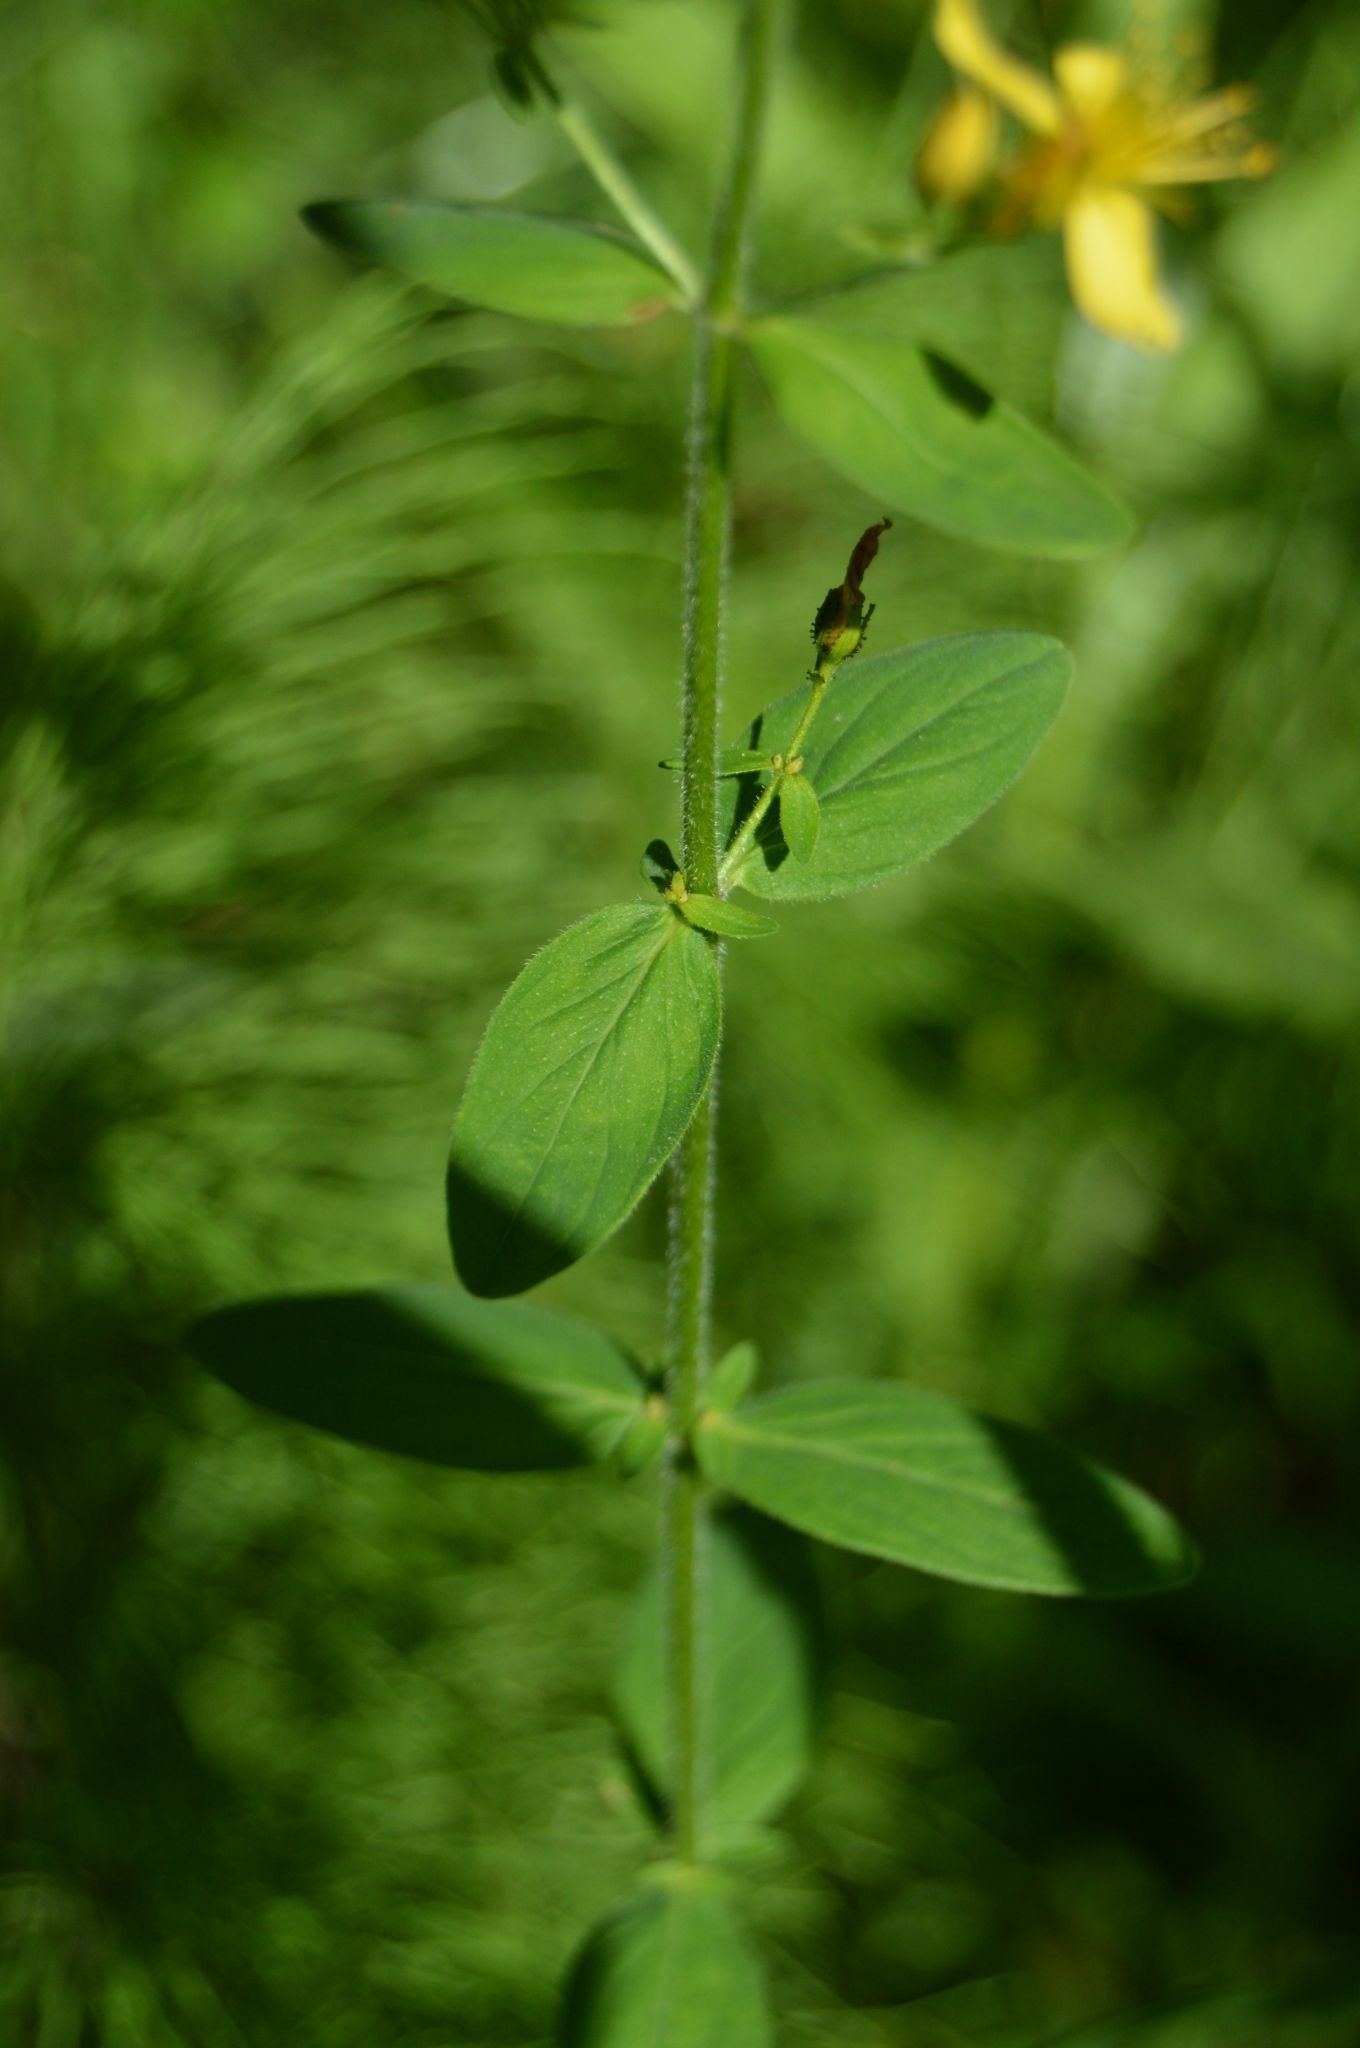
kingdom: Plantae
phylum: Tracheophyta
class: Magnoliopsida
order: Malpighiales
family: Hypericaceae
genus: Hypericum
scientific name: Hypericum hirsutum
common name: Hairy st. john's-wort
